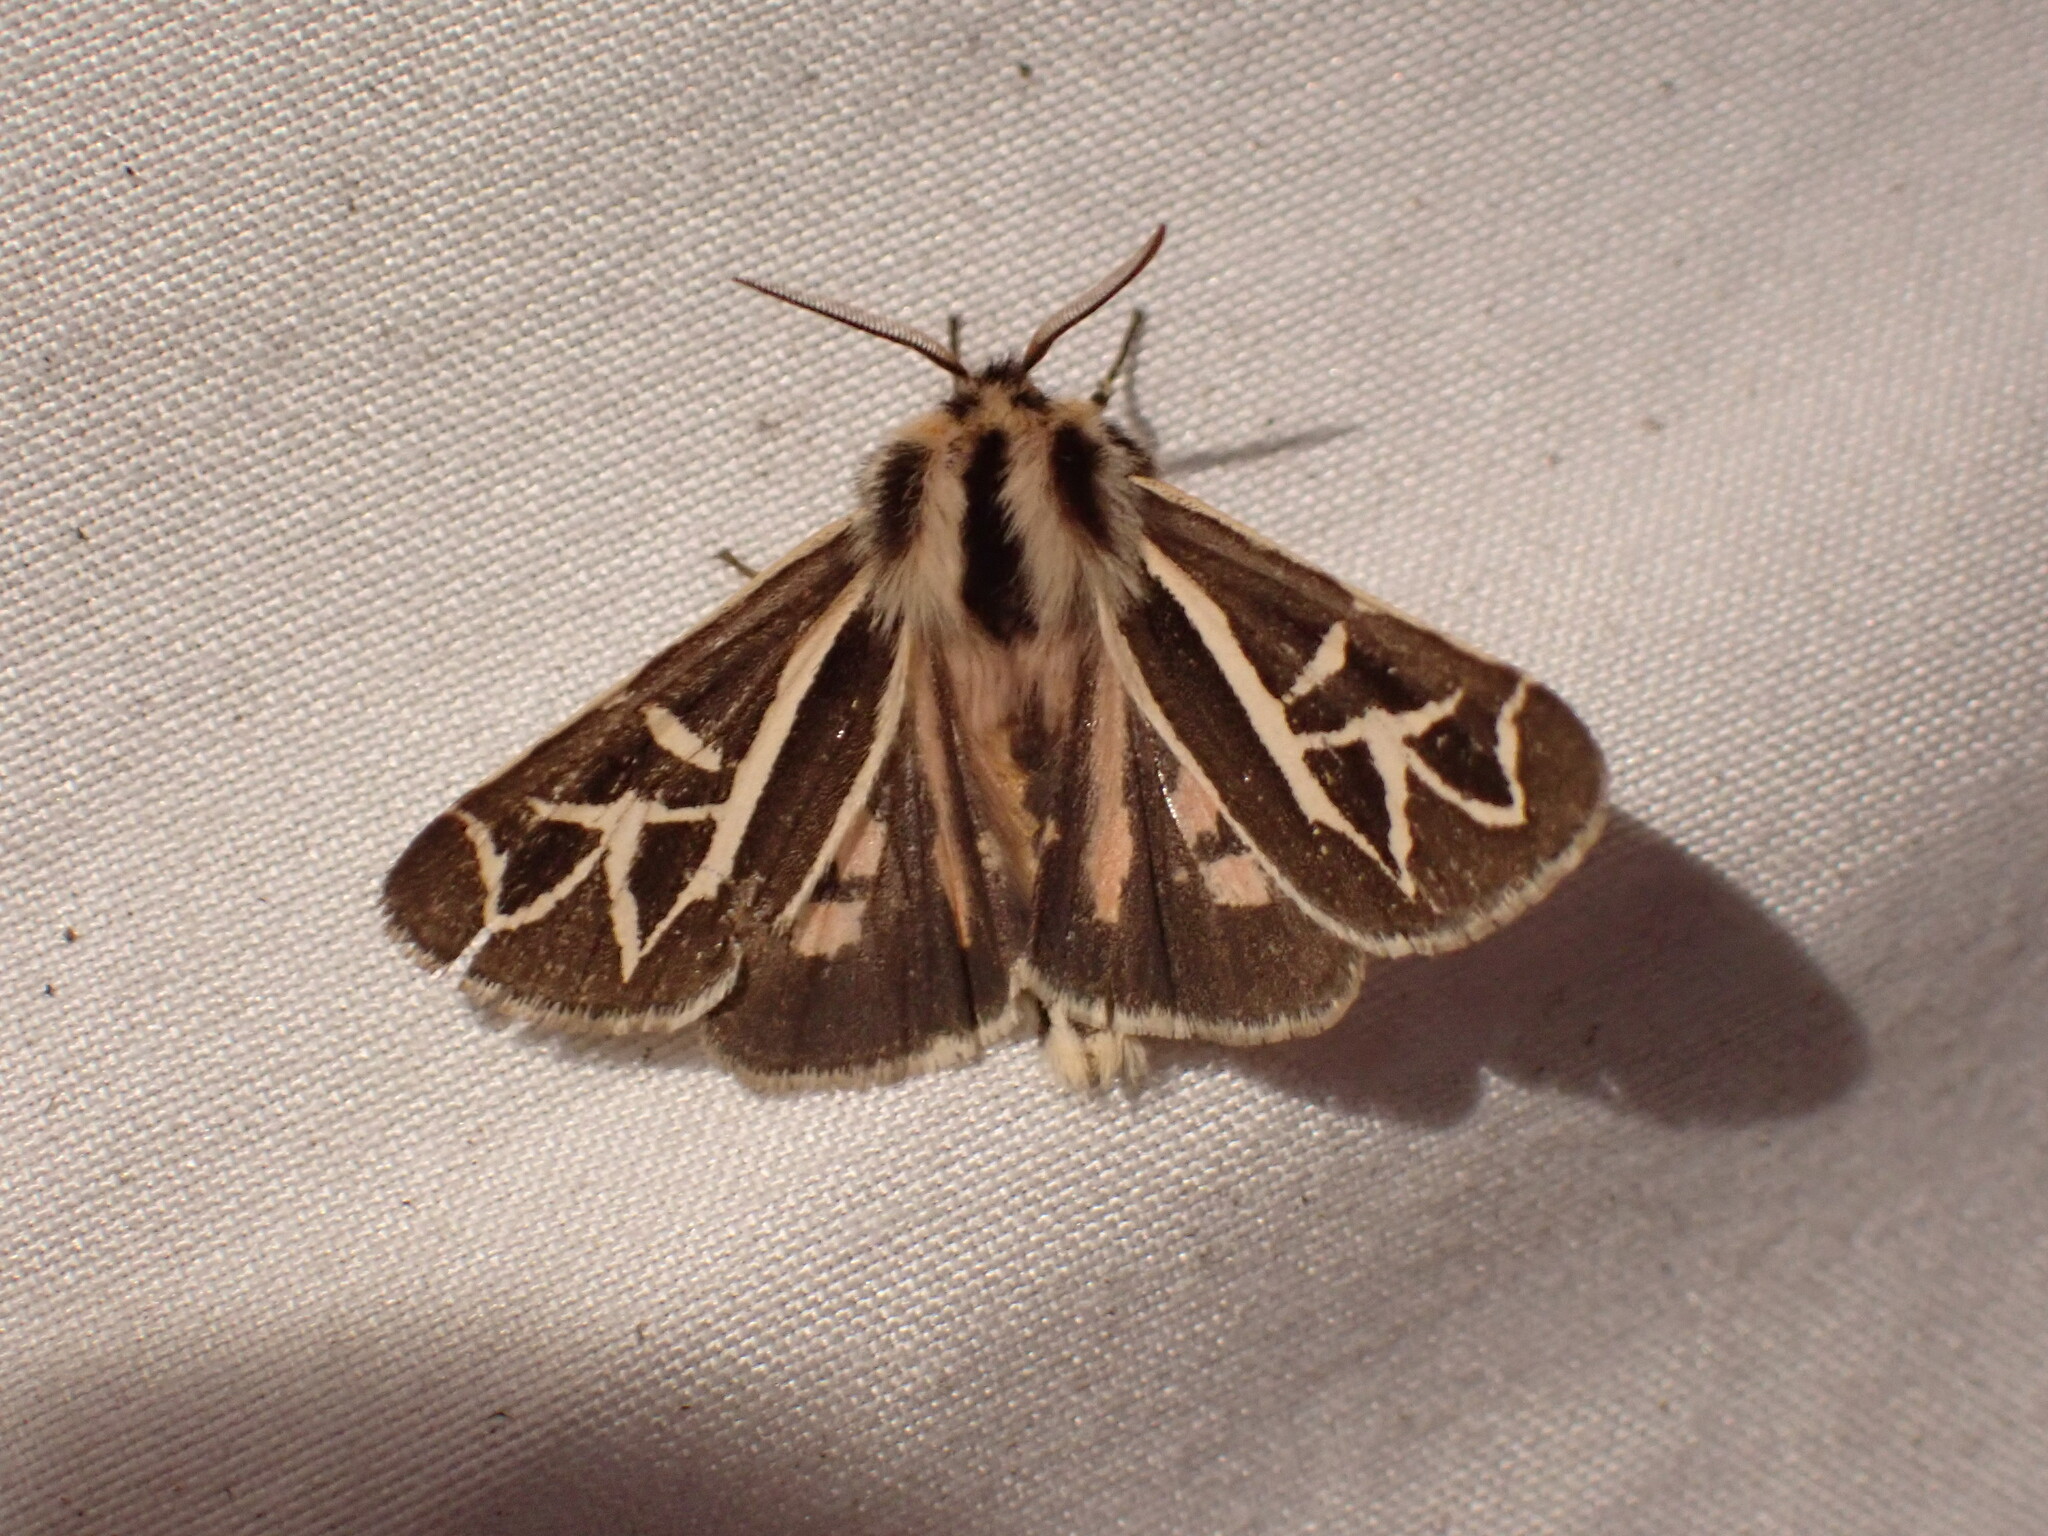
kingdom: Animalia
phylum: Arthropoda
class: Insecta
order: Lepidoptera
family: Erebidae
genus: Apantesis
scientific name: Apantesis
